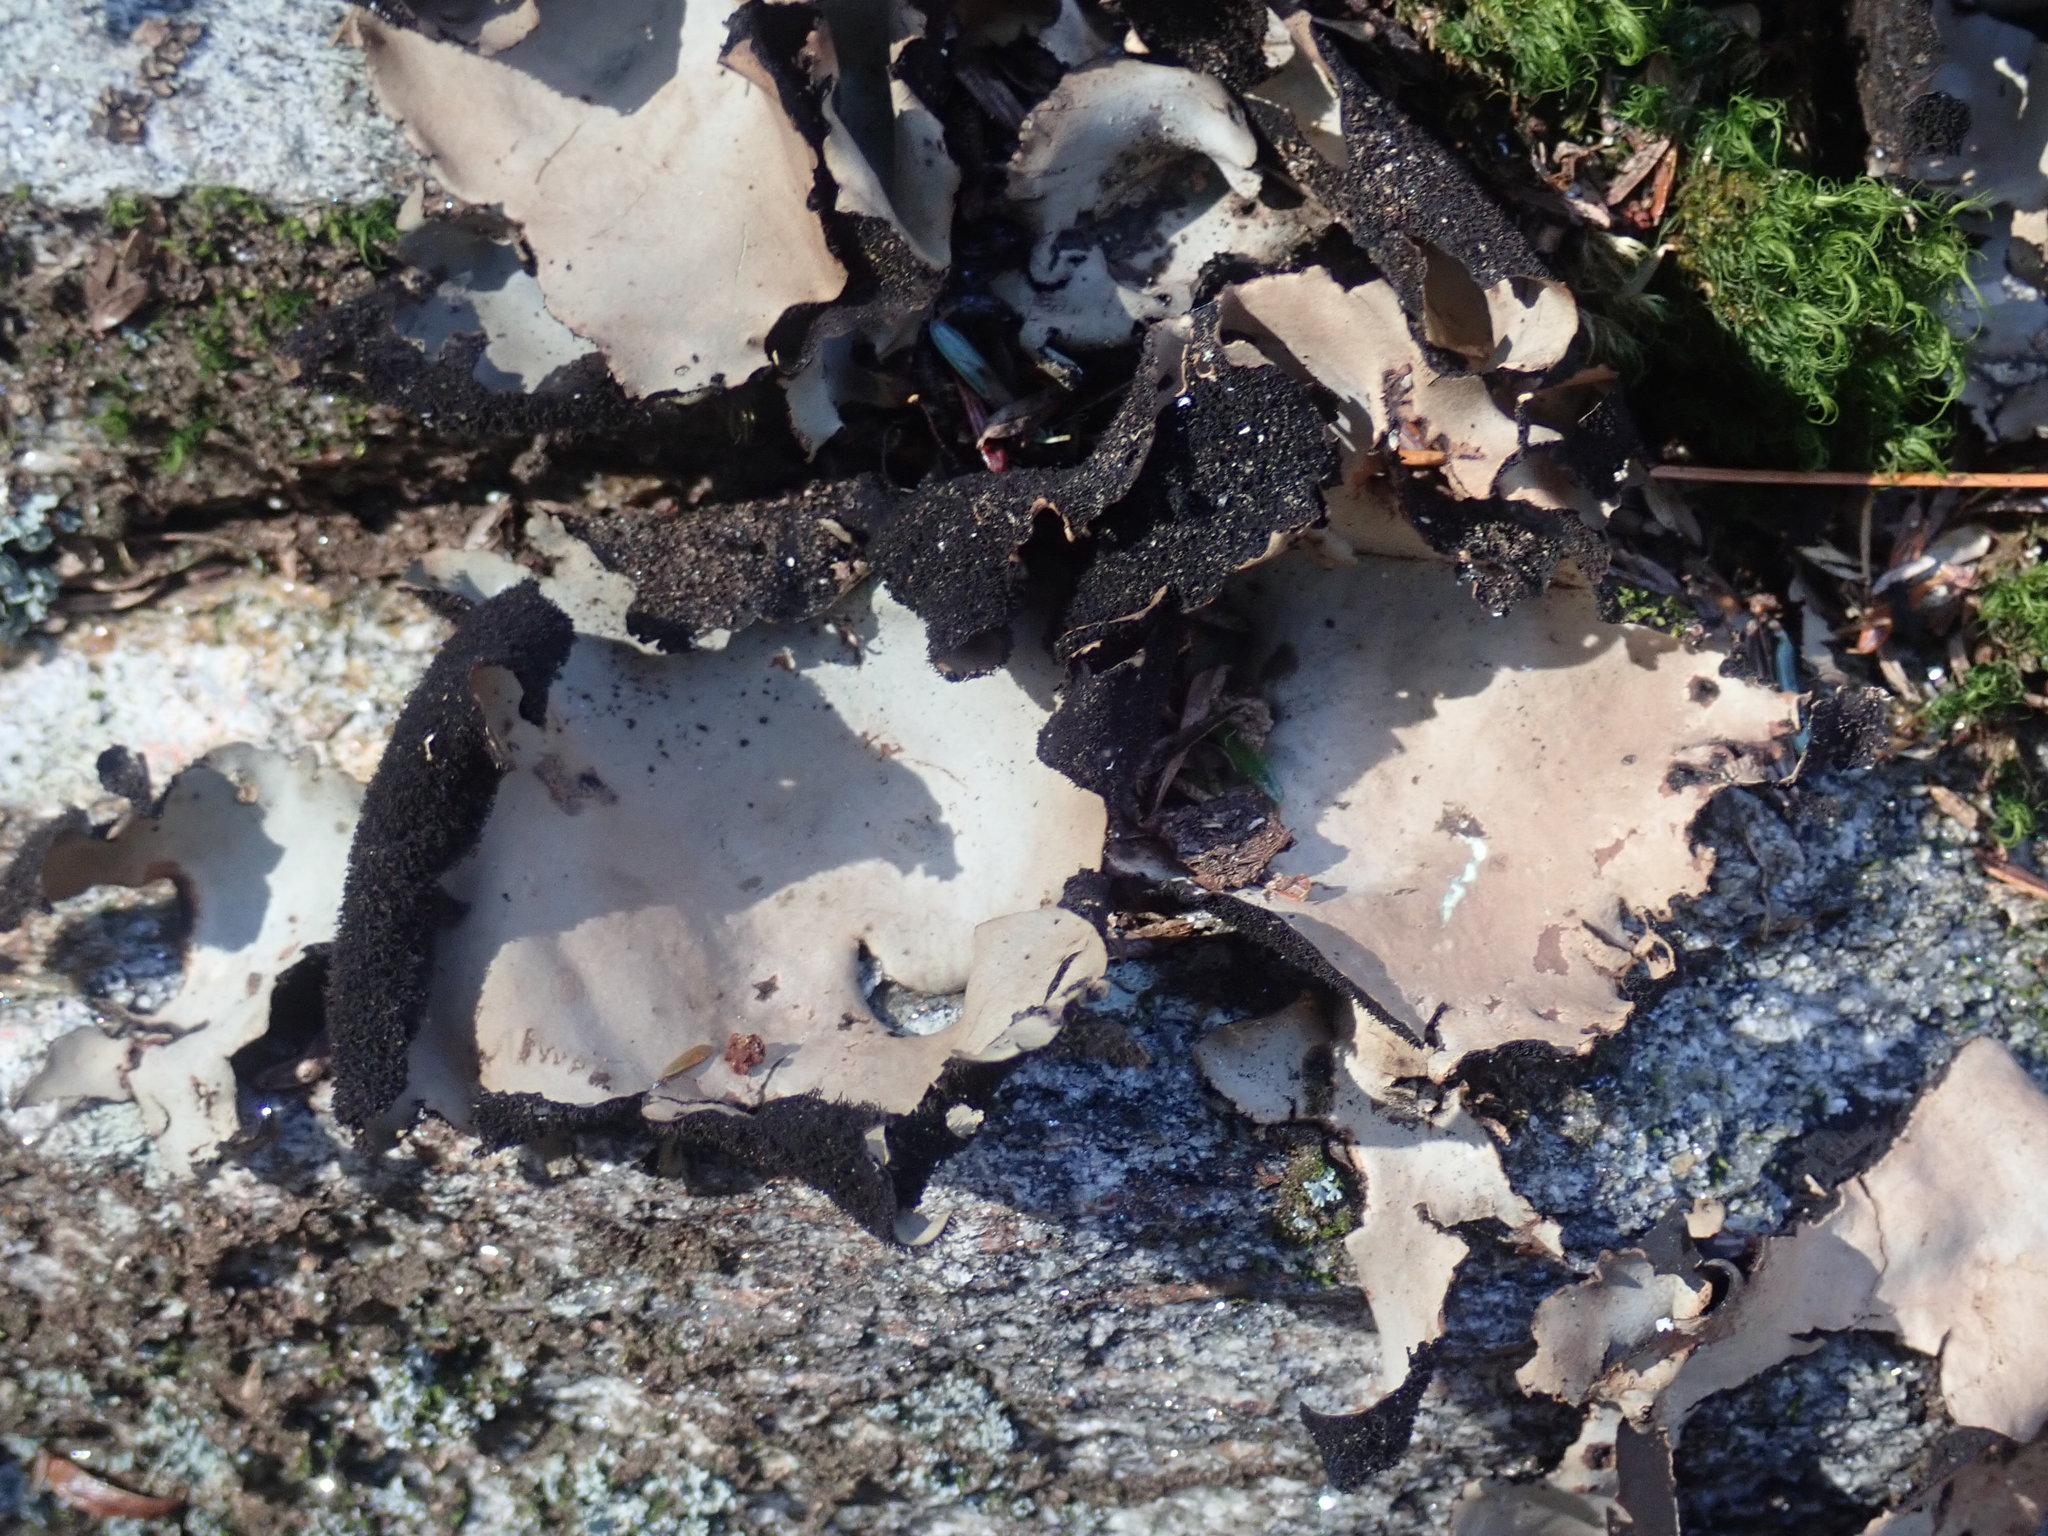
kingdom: Fungi
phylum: Ascomycota
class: Lecanoromycetes
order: Umbilicariales
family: Umbilicariaceae
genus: Umbilicaria
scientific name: Umbilicaria mammulata
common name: Smooth rock tripe
